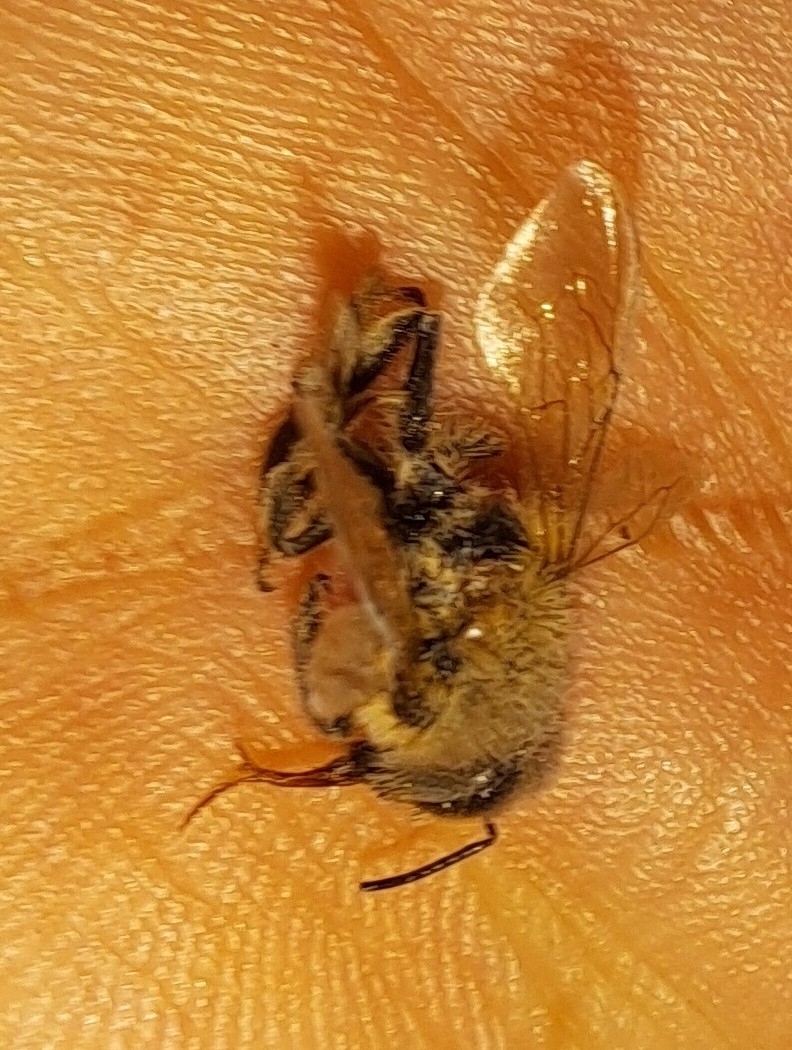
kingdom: Animalia
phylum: Arthropoda
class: Insecta
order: Hymenoptera
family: Apidae
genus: Apis
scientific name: Apis mellifera
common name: Honey bee
